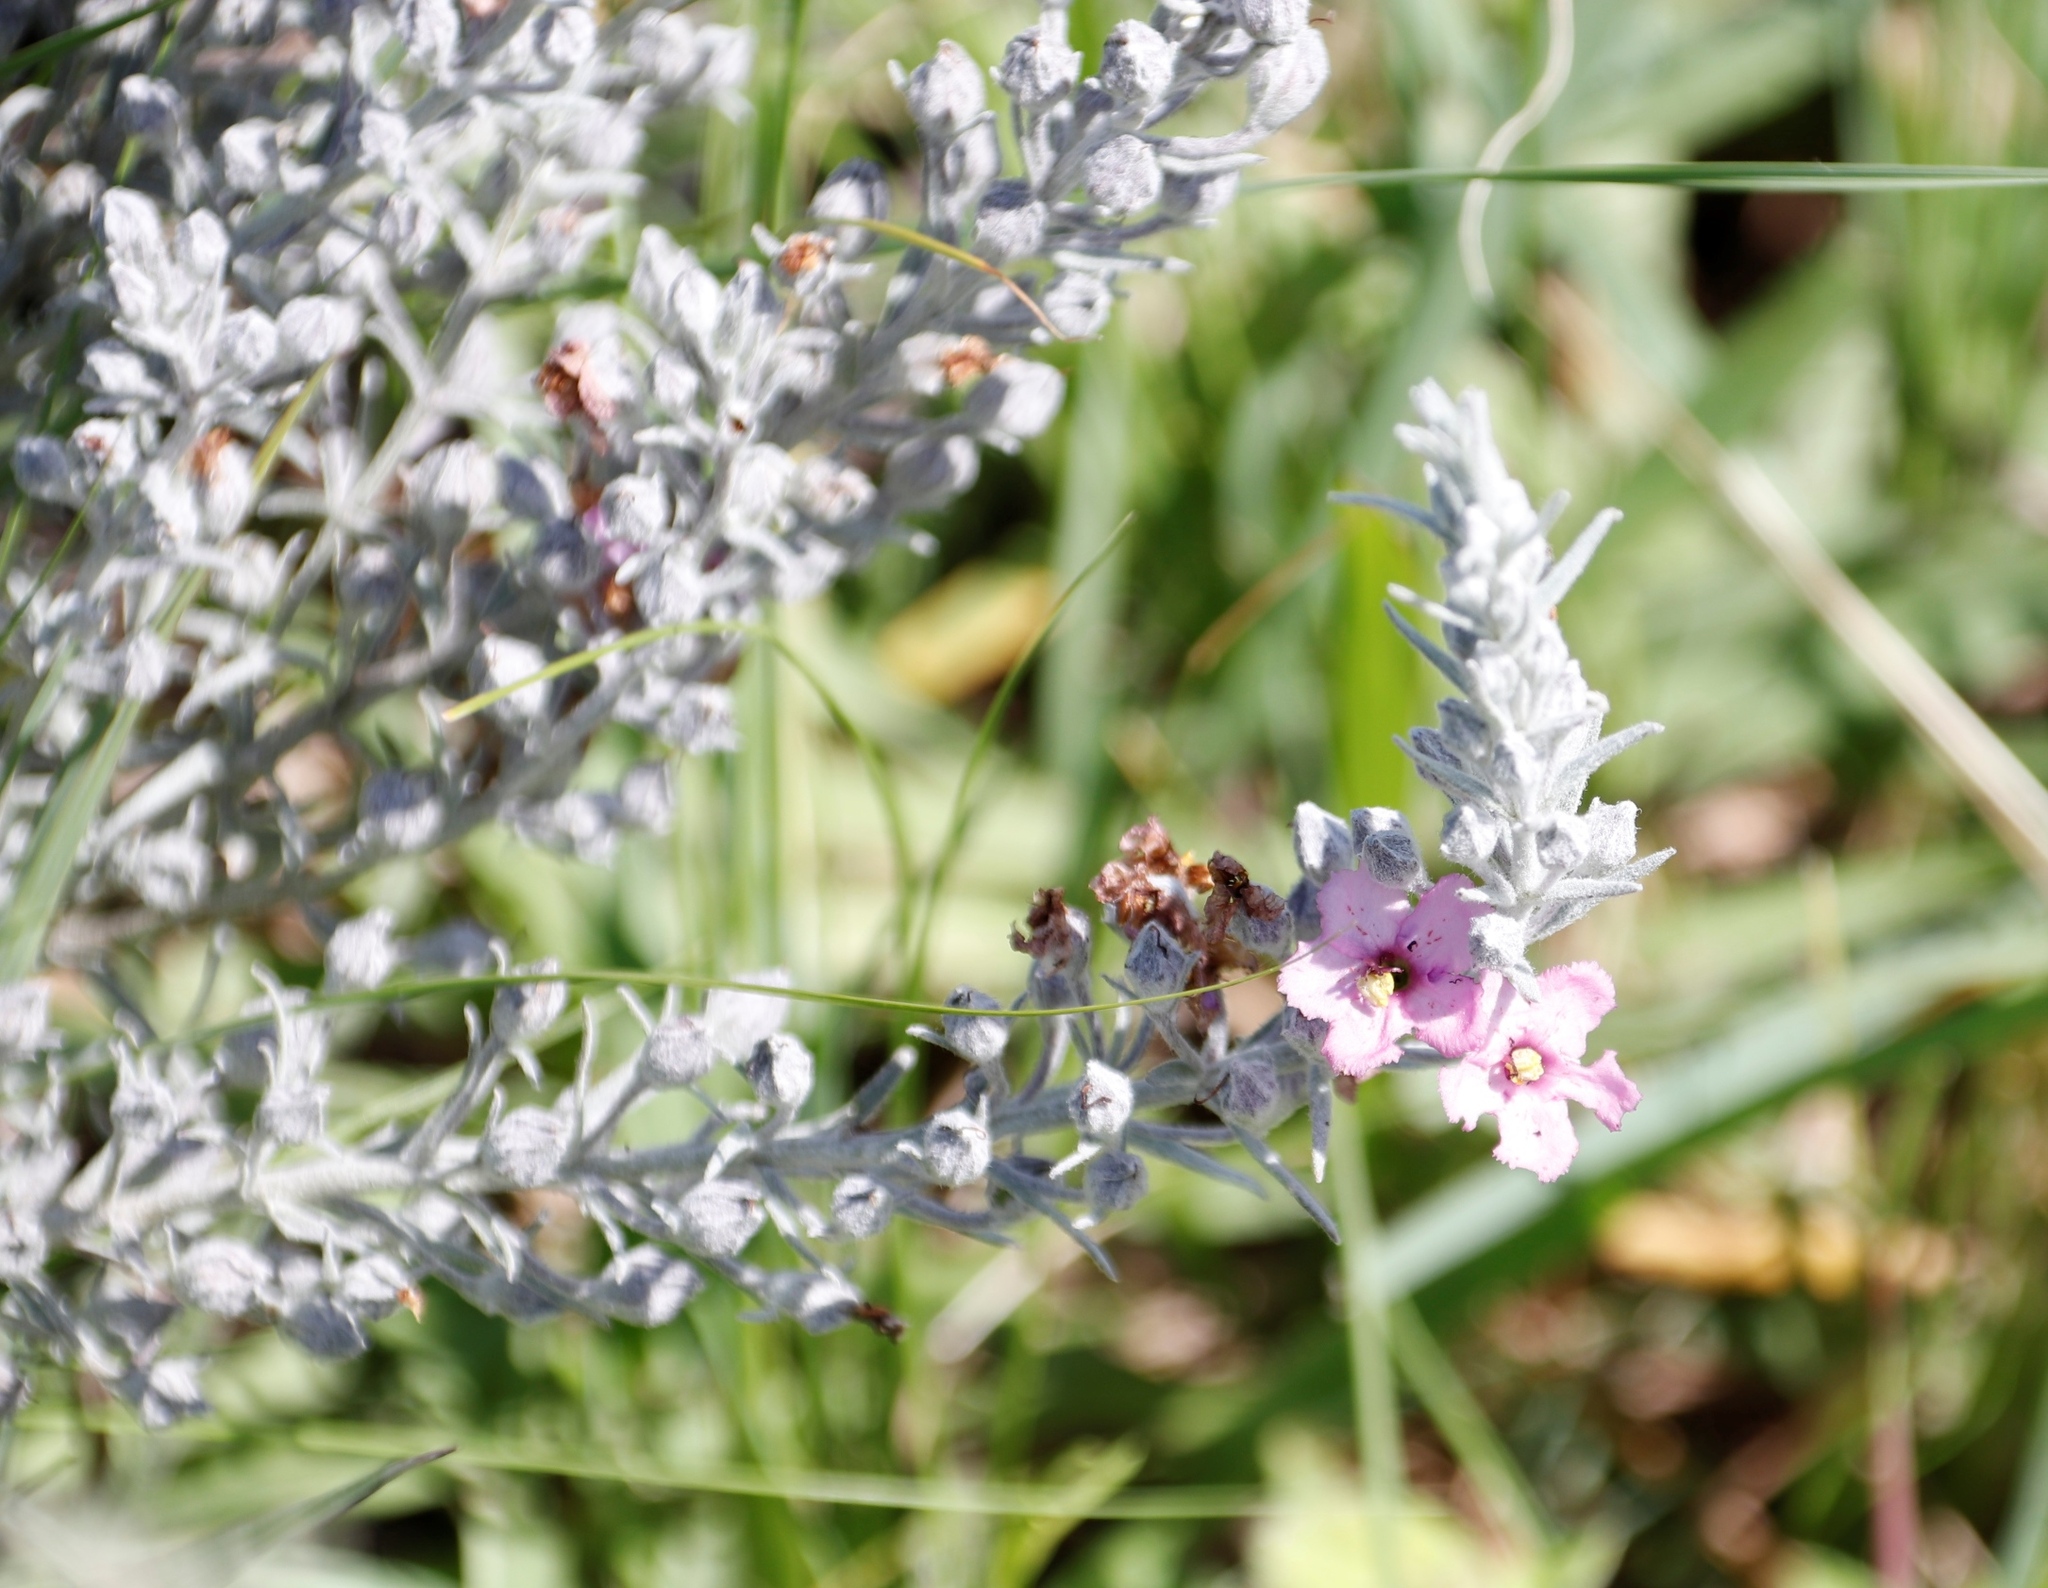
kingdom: Plantae
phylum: Tracheophyta
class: Magnoliopsida
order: Lamiales
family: Orobanchaceae
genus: Sopubia
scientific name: Sopubia cana
